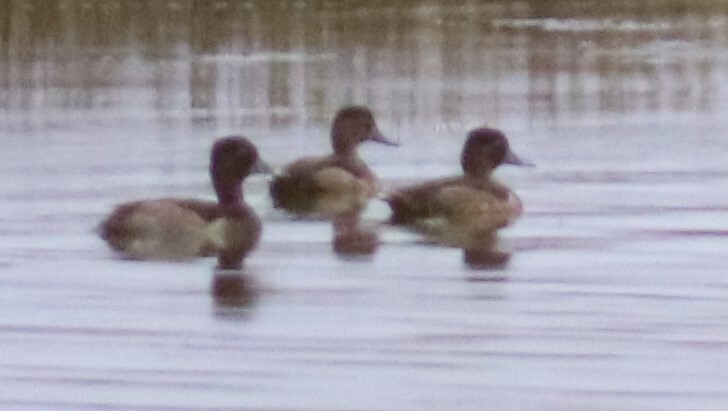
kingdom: Animalia
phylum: Chordata
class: Aves
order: Anseriformes
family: Anatidae
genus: Aythya
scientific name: Aythya collaris
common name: Ring-necked duck
